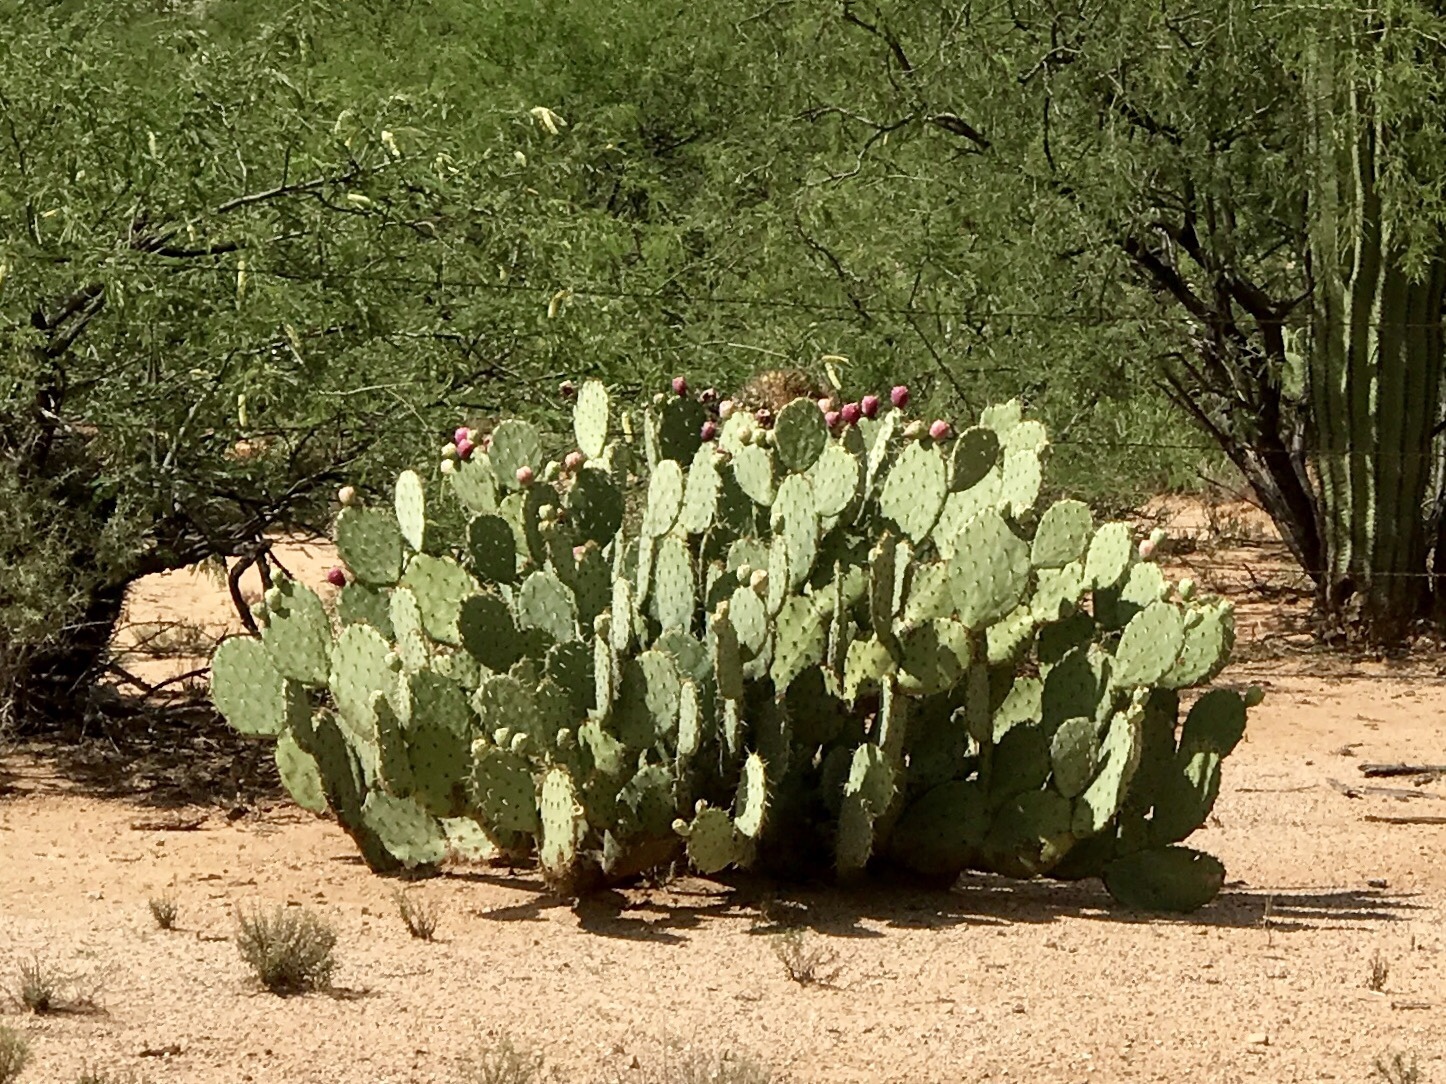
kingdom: Plantae
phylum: Tracheophyta
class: Magnoliopsida
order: Caryophyllales
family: Cactaceae
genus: Opuntia
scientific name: Opuntia engelmannii
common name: Cactus-apple
